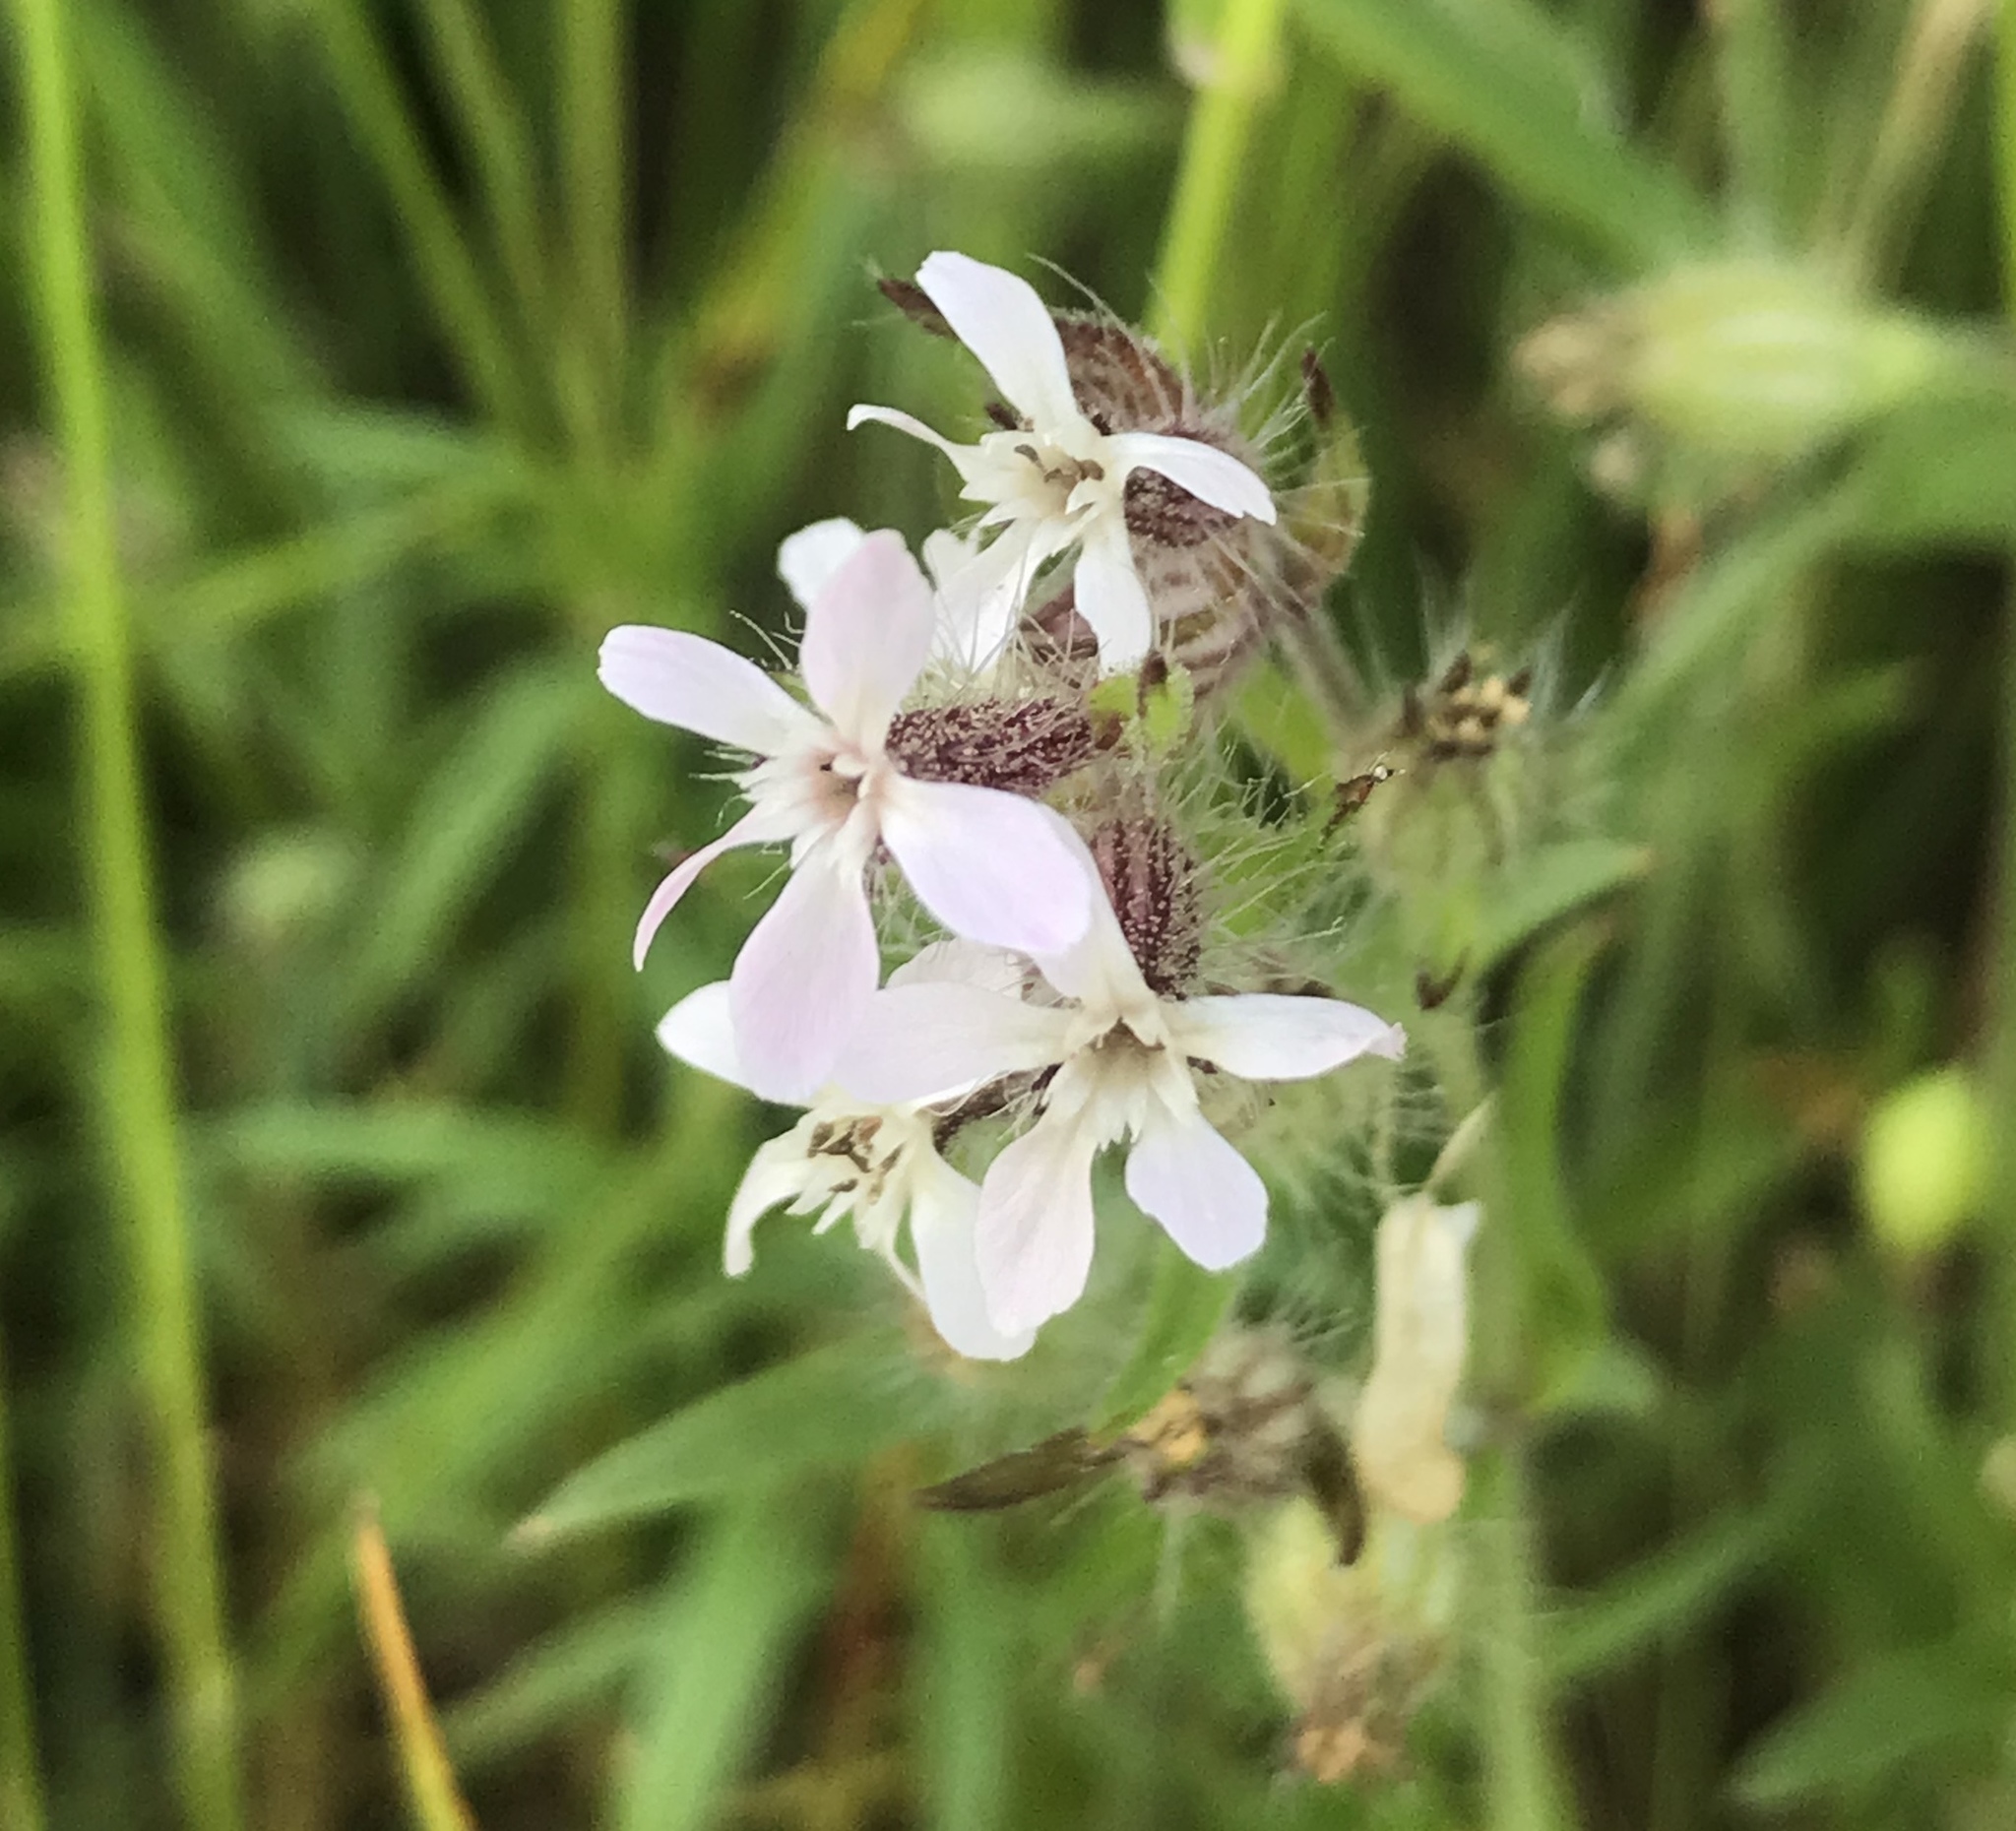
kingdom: Plantae
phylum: Tracheophyta
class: Magnoliopsida
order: Caryophyllales
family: Caryophyllaceae
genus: Silene
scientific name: Silene gallica
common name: Small-flowered catchfly
